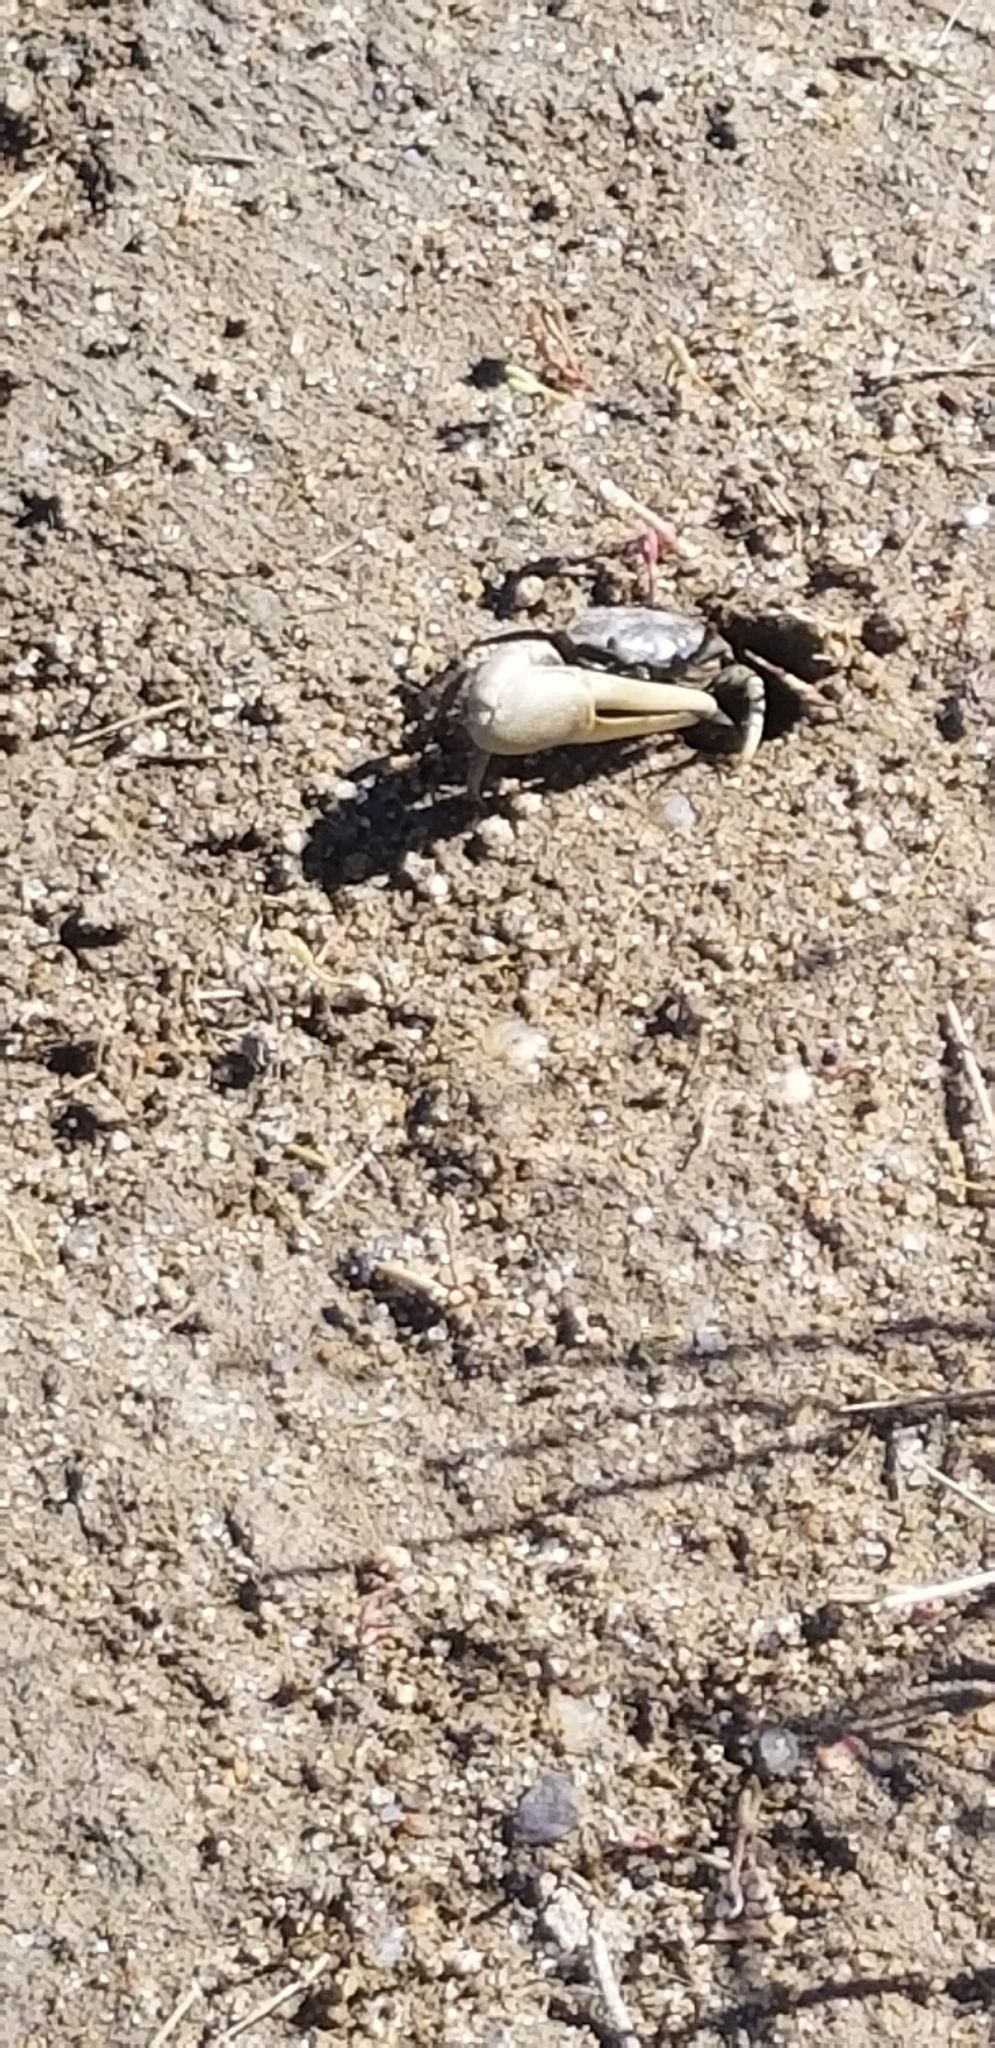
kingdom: Animalia
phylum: Arthropoda
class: Malacostraca
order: Decapoda
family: Ocypodidae
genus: Minuca
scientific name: Minuca pugnax
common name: Mud fiddler crab
